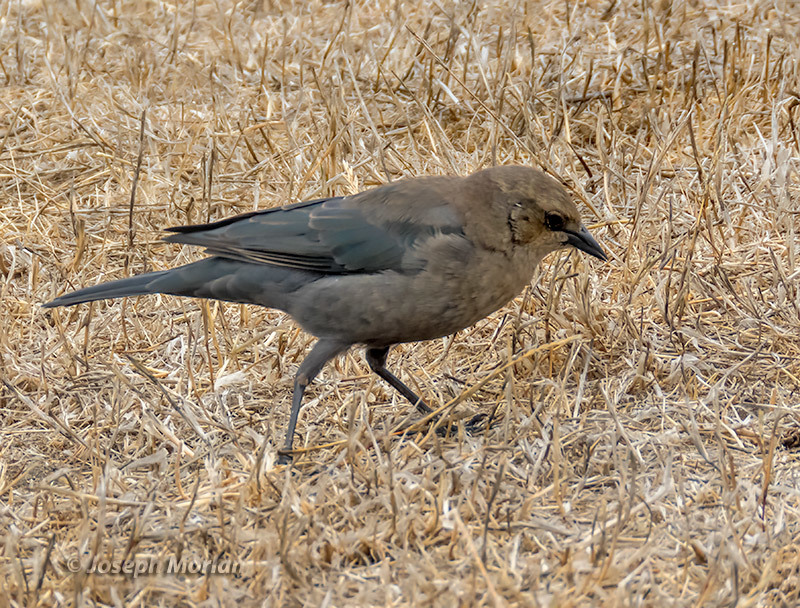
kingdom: Animalia
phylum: Chordata
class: Aves
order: Passeriformes
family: Icteridae
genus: Euphagus
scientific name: Euphagus cyanocephalus
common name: Brewer's blackbird
